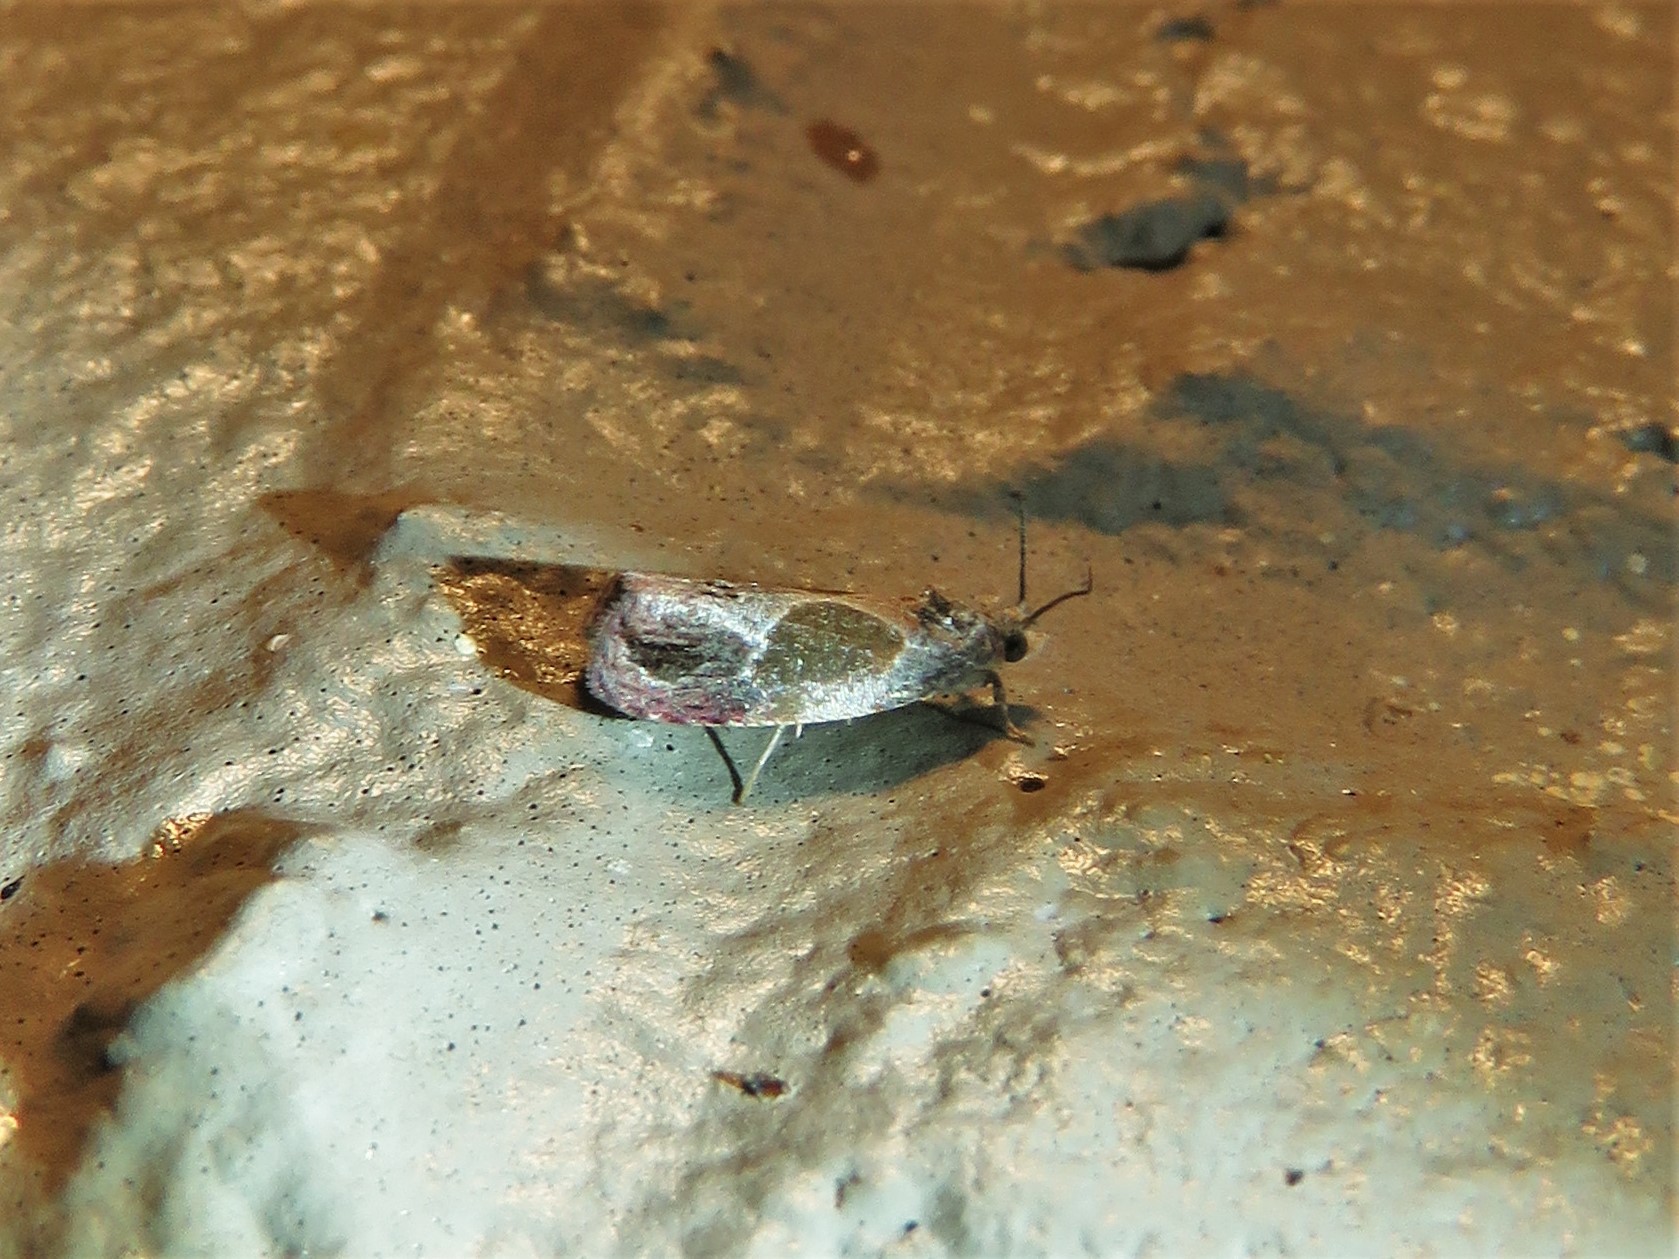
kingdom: Animalia
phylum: Arthropoda
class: Insecta
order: Lepidoptera
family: Tortricidae
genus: Eumarozia
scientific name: Eumarozia malachitana
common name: Sculptured moth
